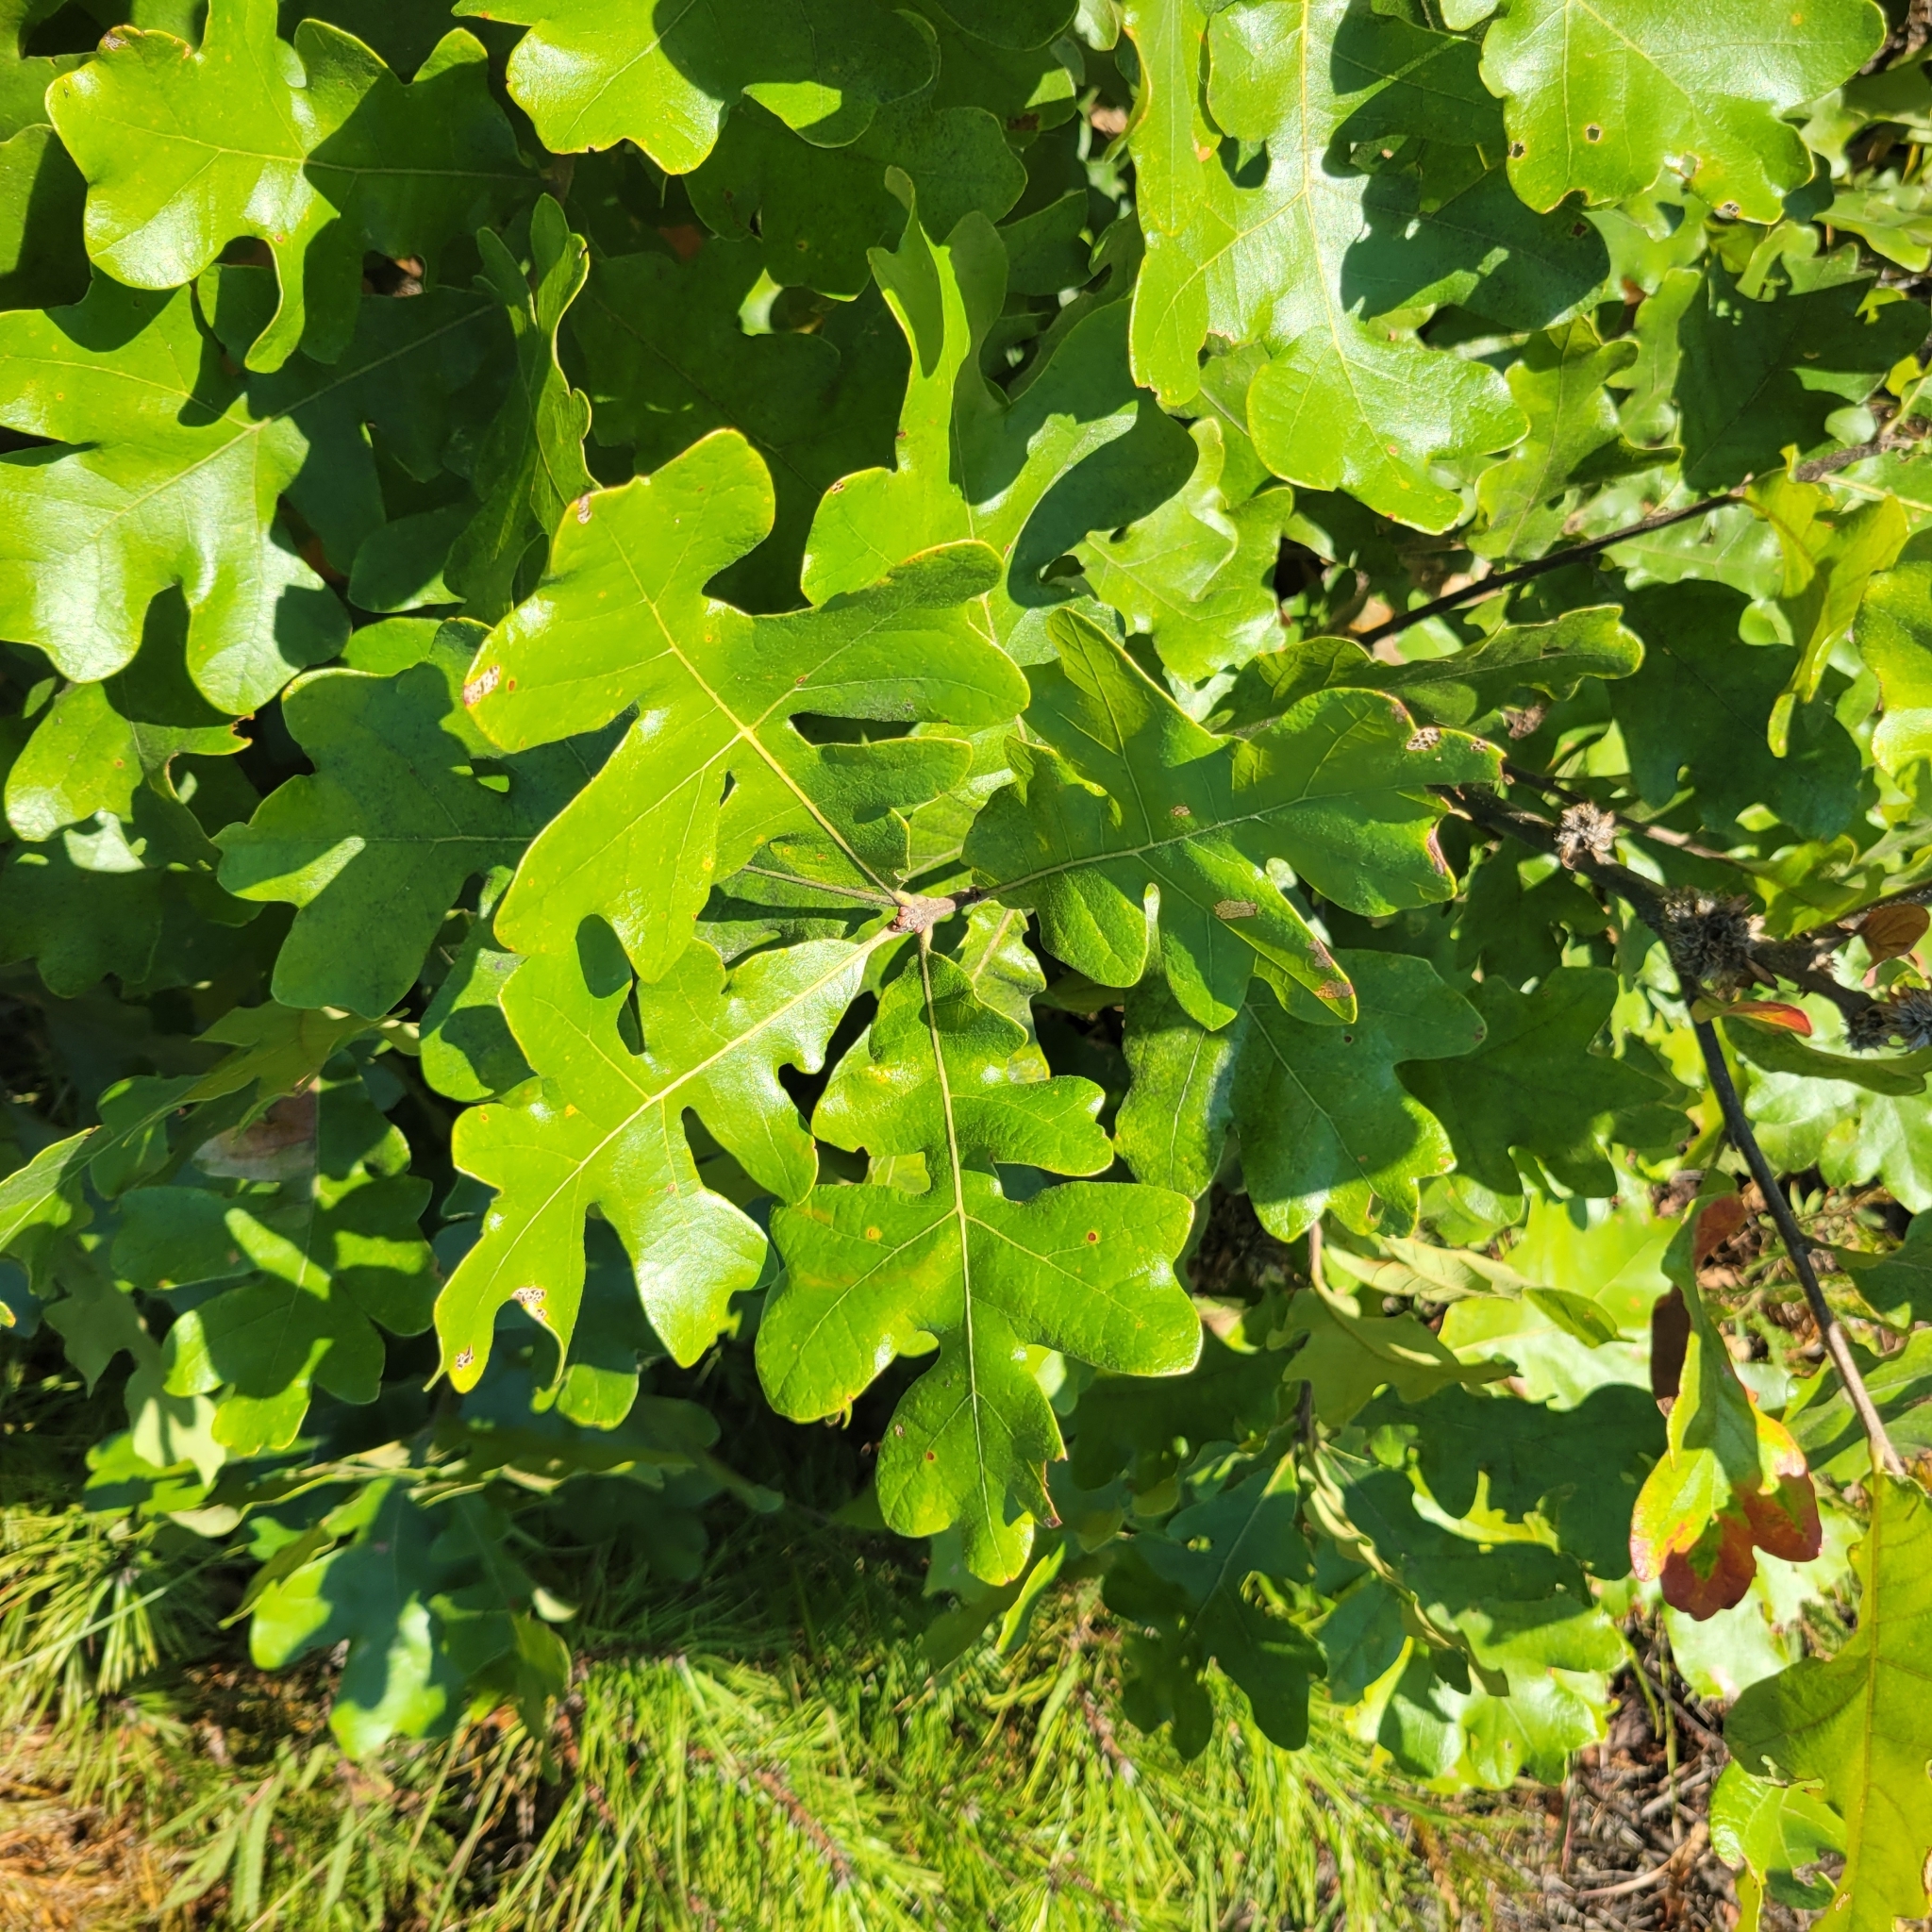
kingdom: Plantae
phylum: Tracheophyta
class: Magnoliopsida
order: Fagales
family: Fagaceae
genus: Quercus
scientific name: Quercus stellata
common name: Post oak
